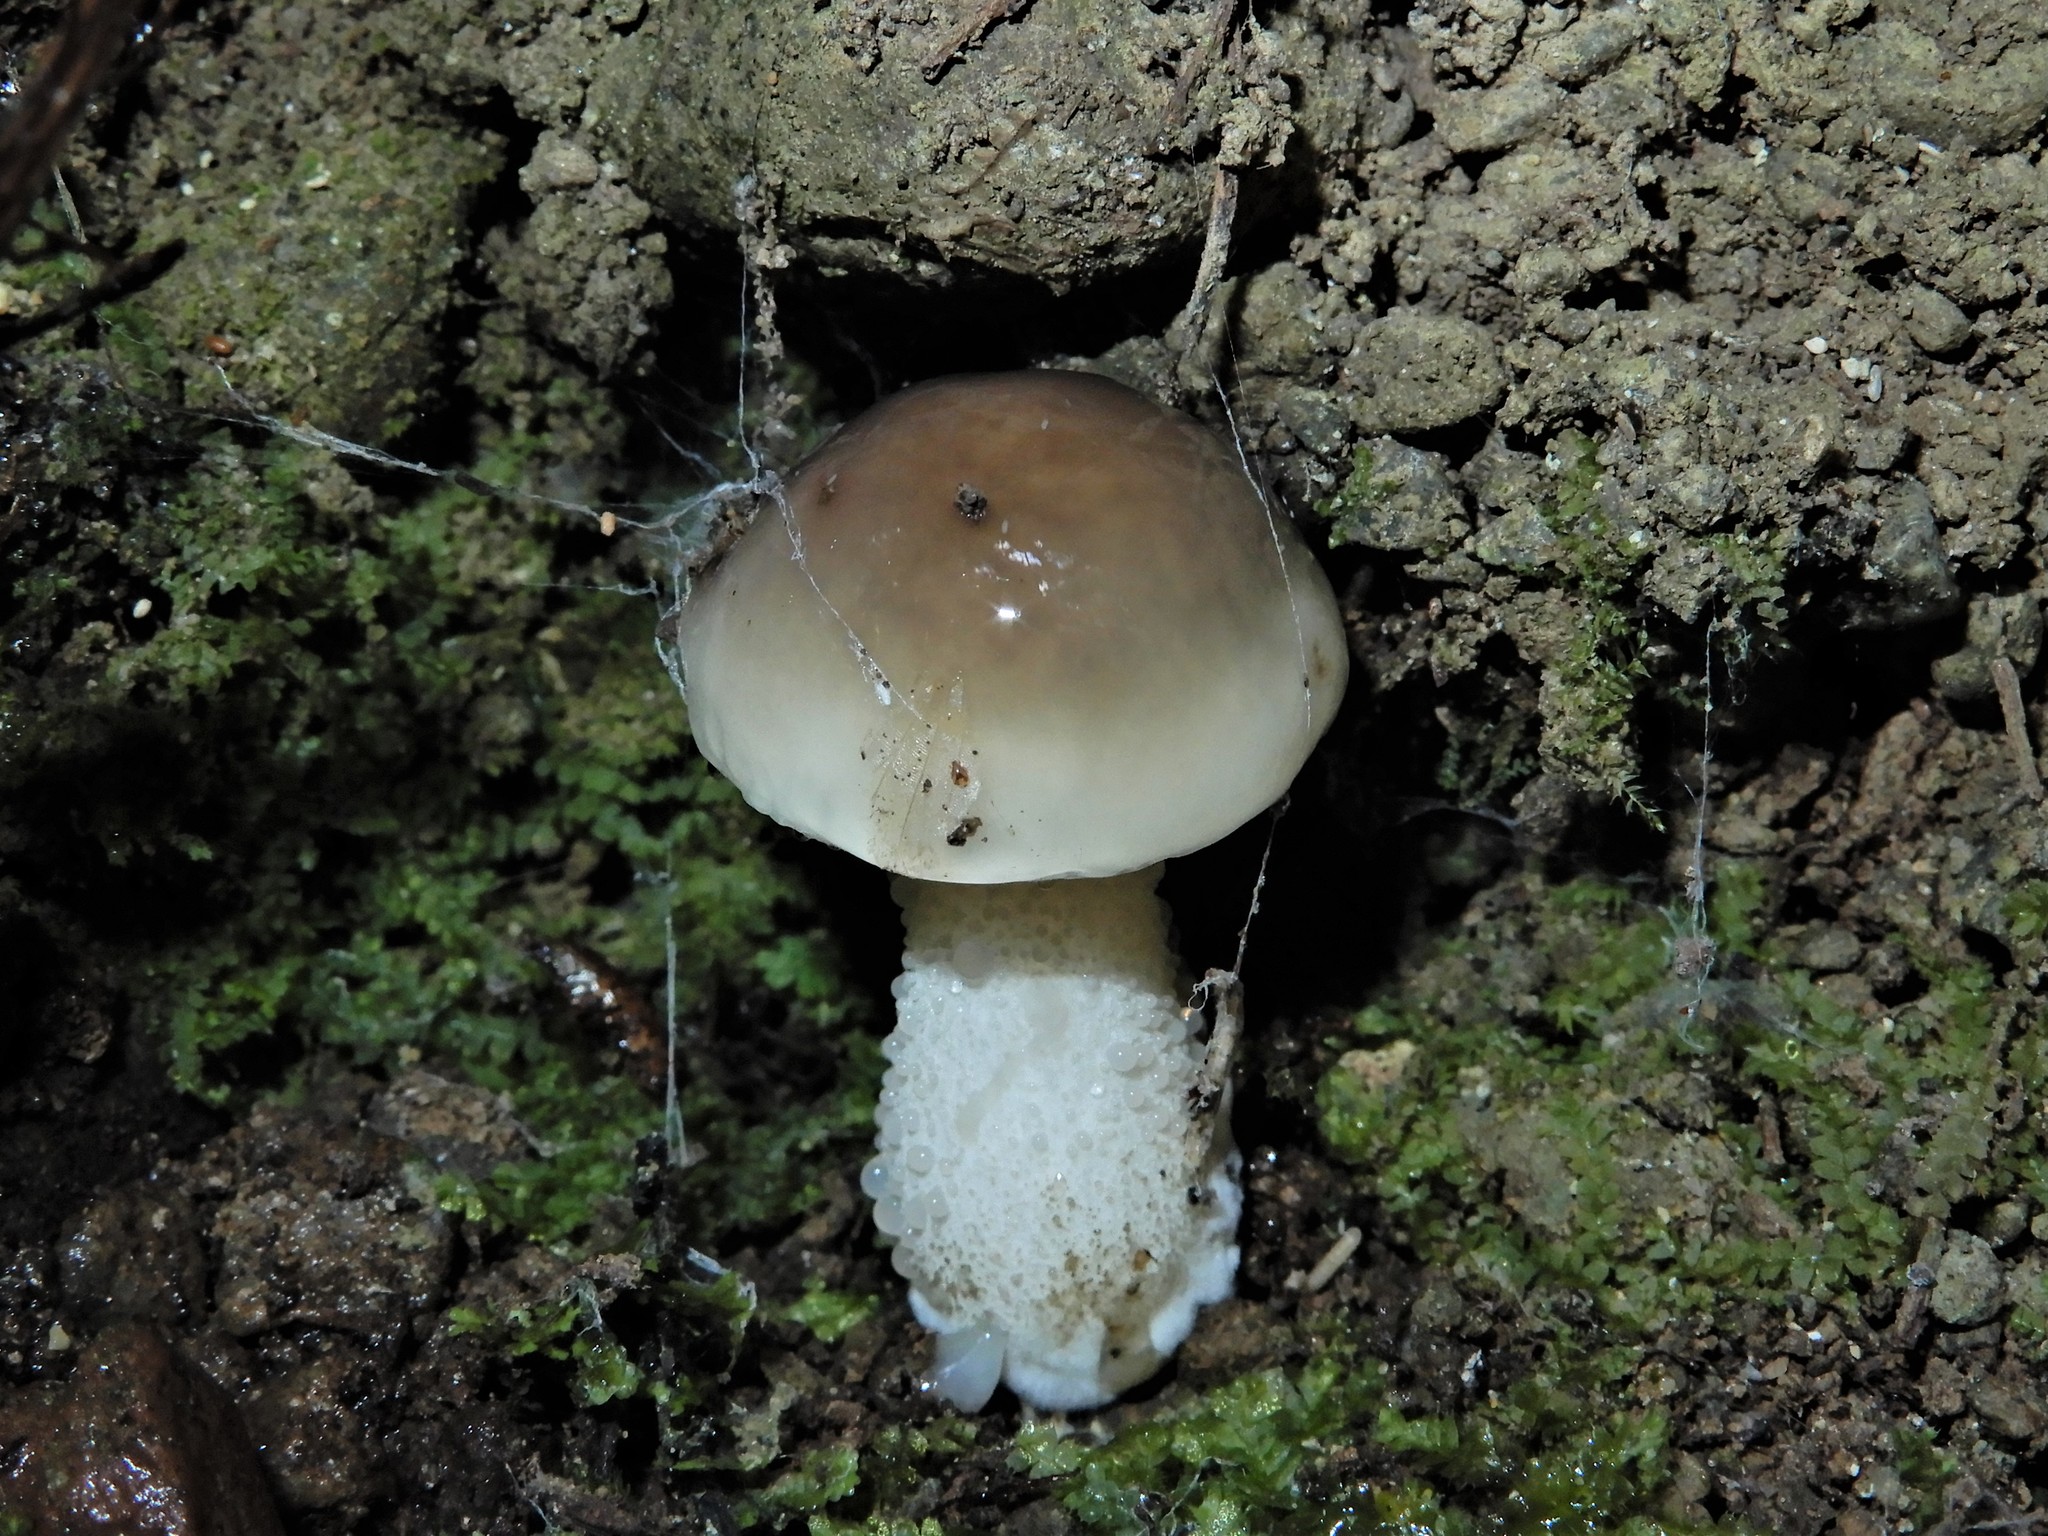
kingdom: Fungi
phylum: Basidiomycota
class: Agaricomycetes
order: Boletales
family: Suillaceae
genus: Suillus
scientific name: Suillus pungens
